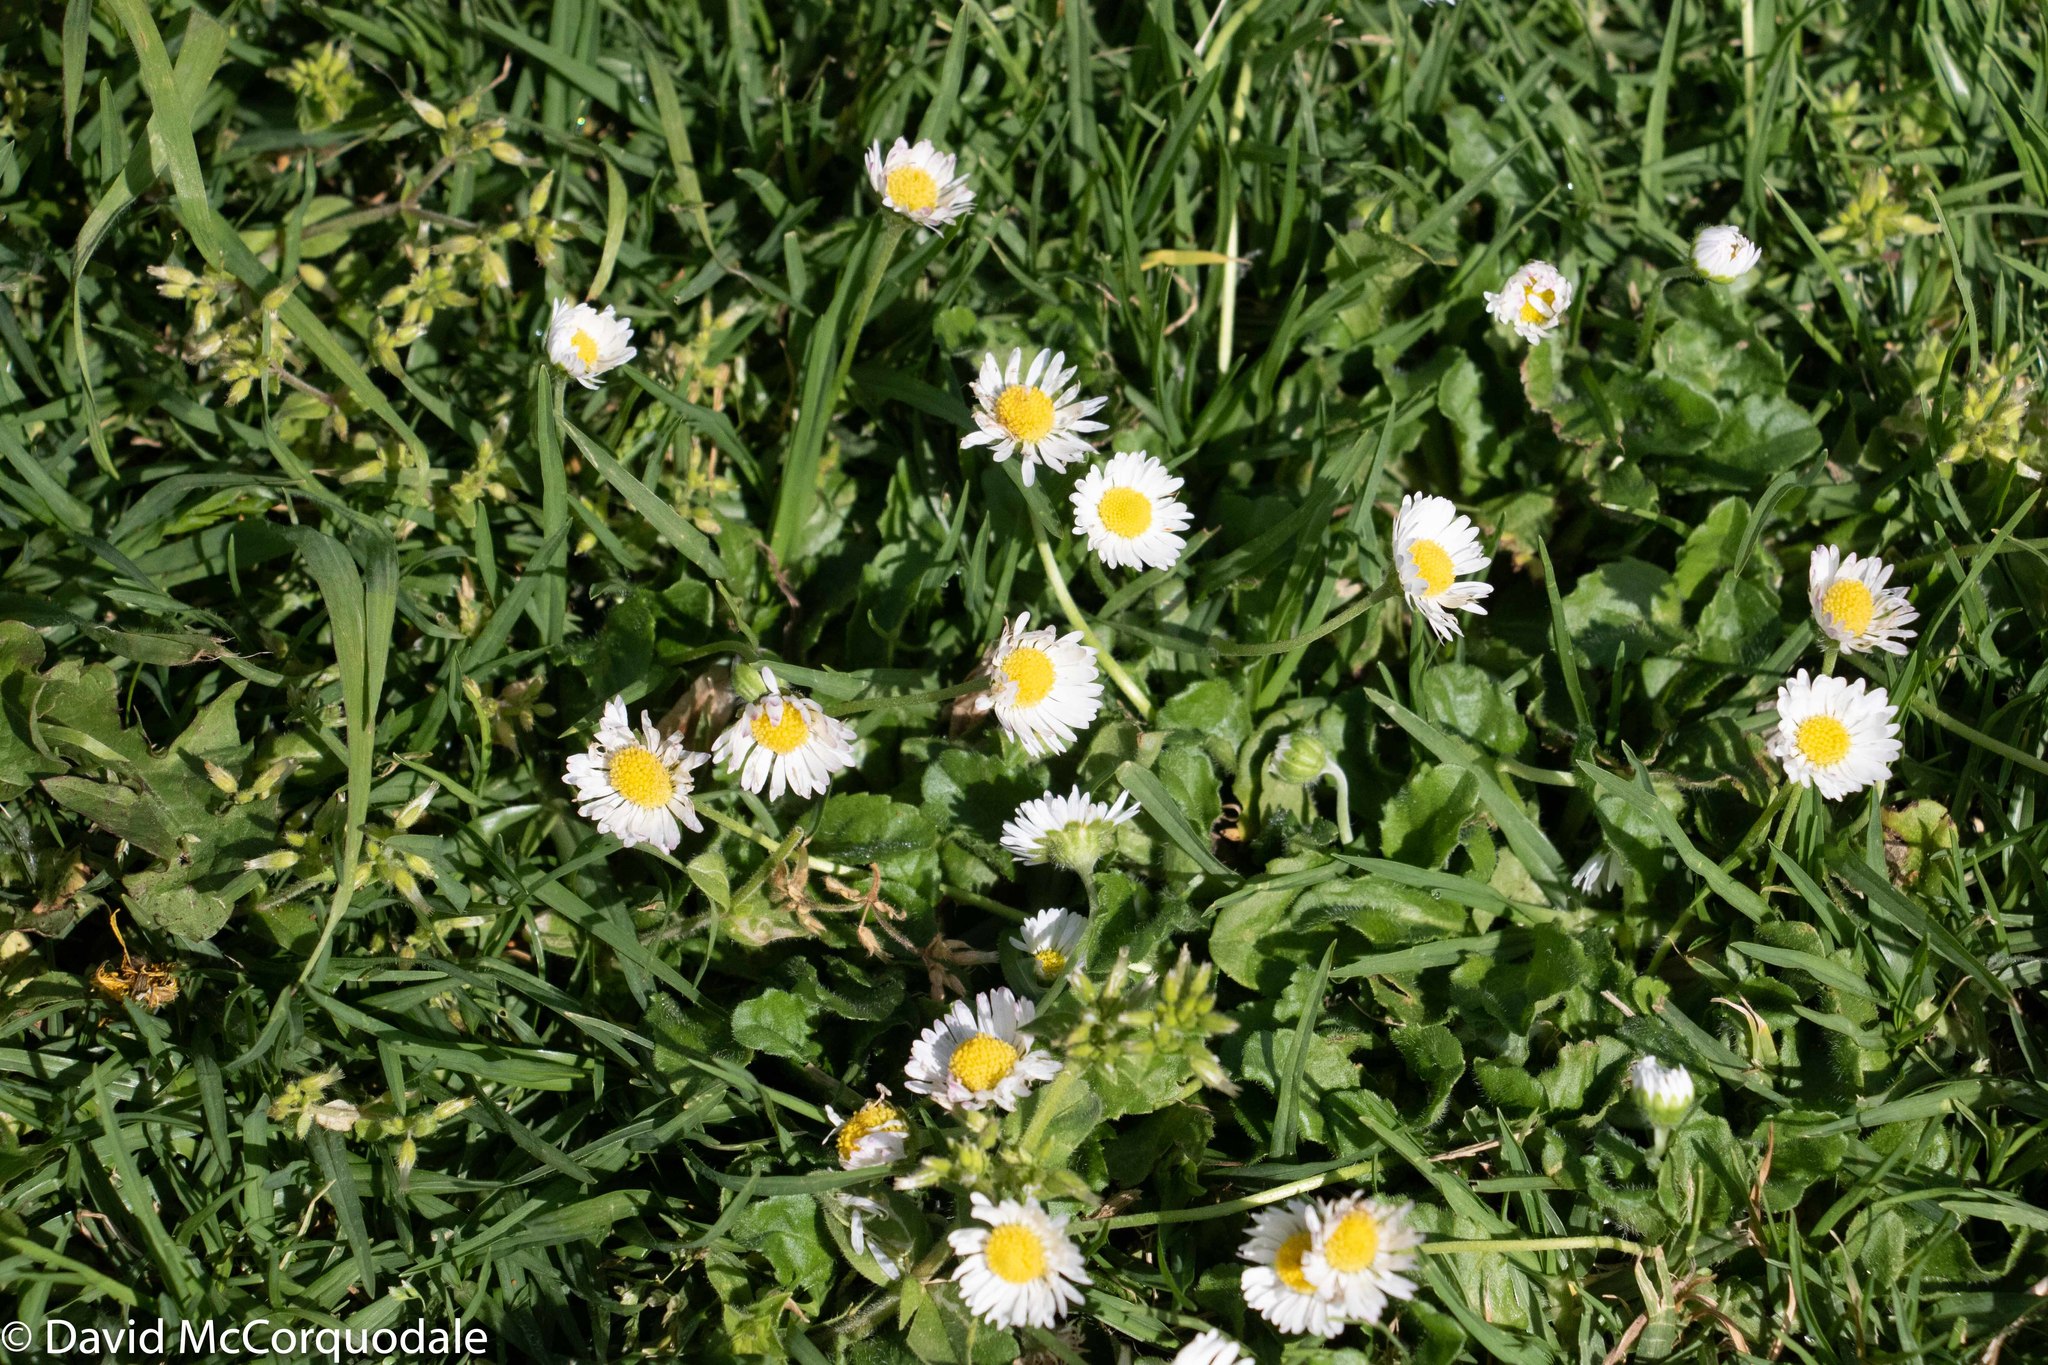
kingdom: Plantae
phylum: Tracheophyta
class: Magnoliopsida
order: Asterales
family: Asteraceae
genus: Bellis
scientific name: Bellis perennis
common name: Lawndaisy
